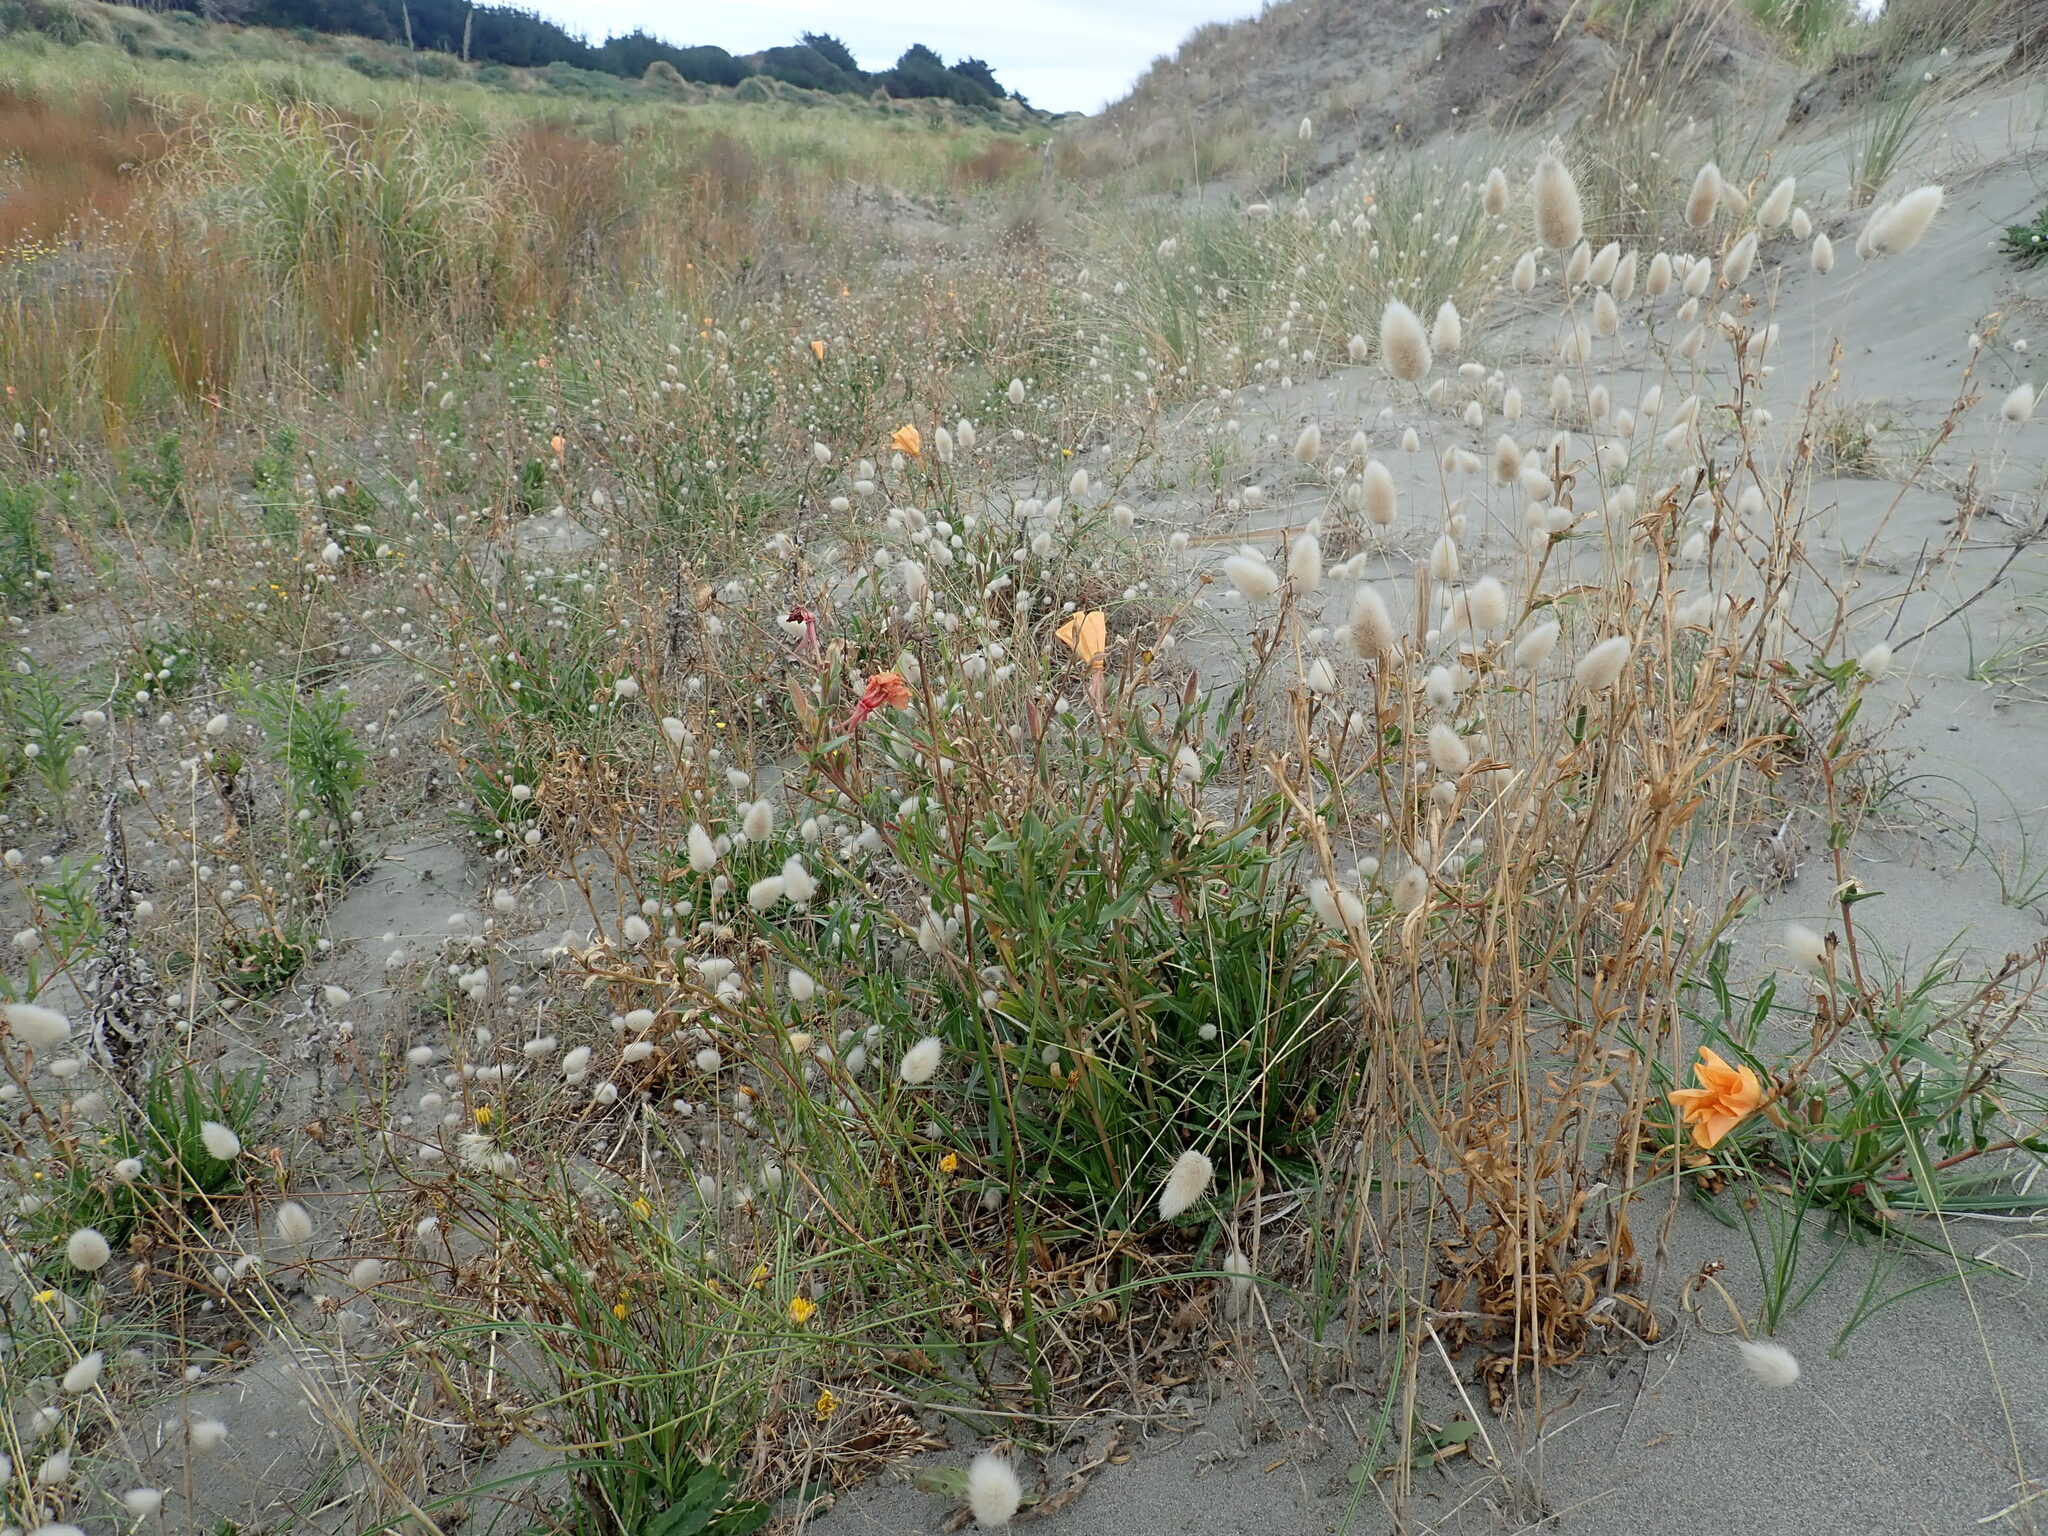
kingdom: Plantae
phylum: Tracheophyta
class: Magnoliopsida
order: Myrtales
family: Onagraceae
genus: Oenothera
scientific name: Oenothera stricta
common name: Fragrant evening-primrose
